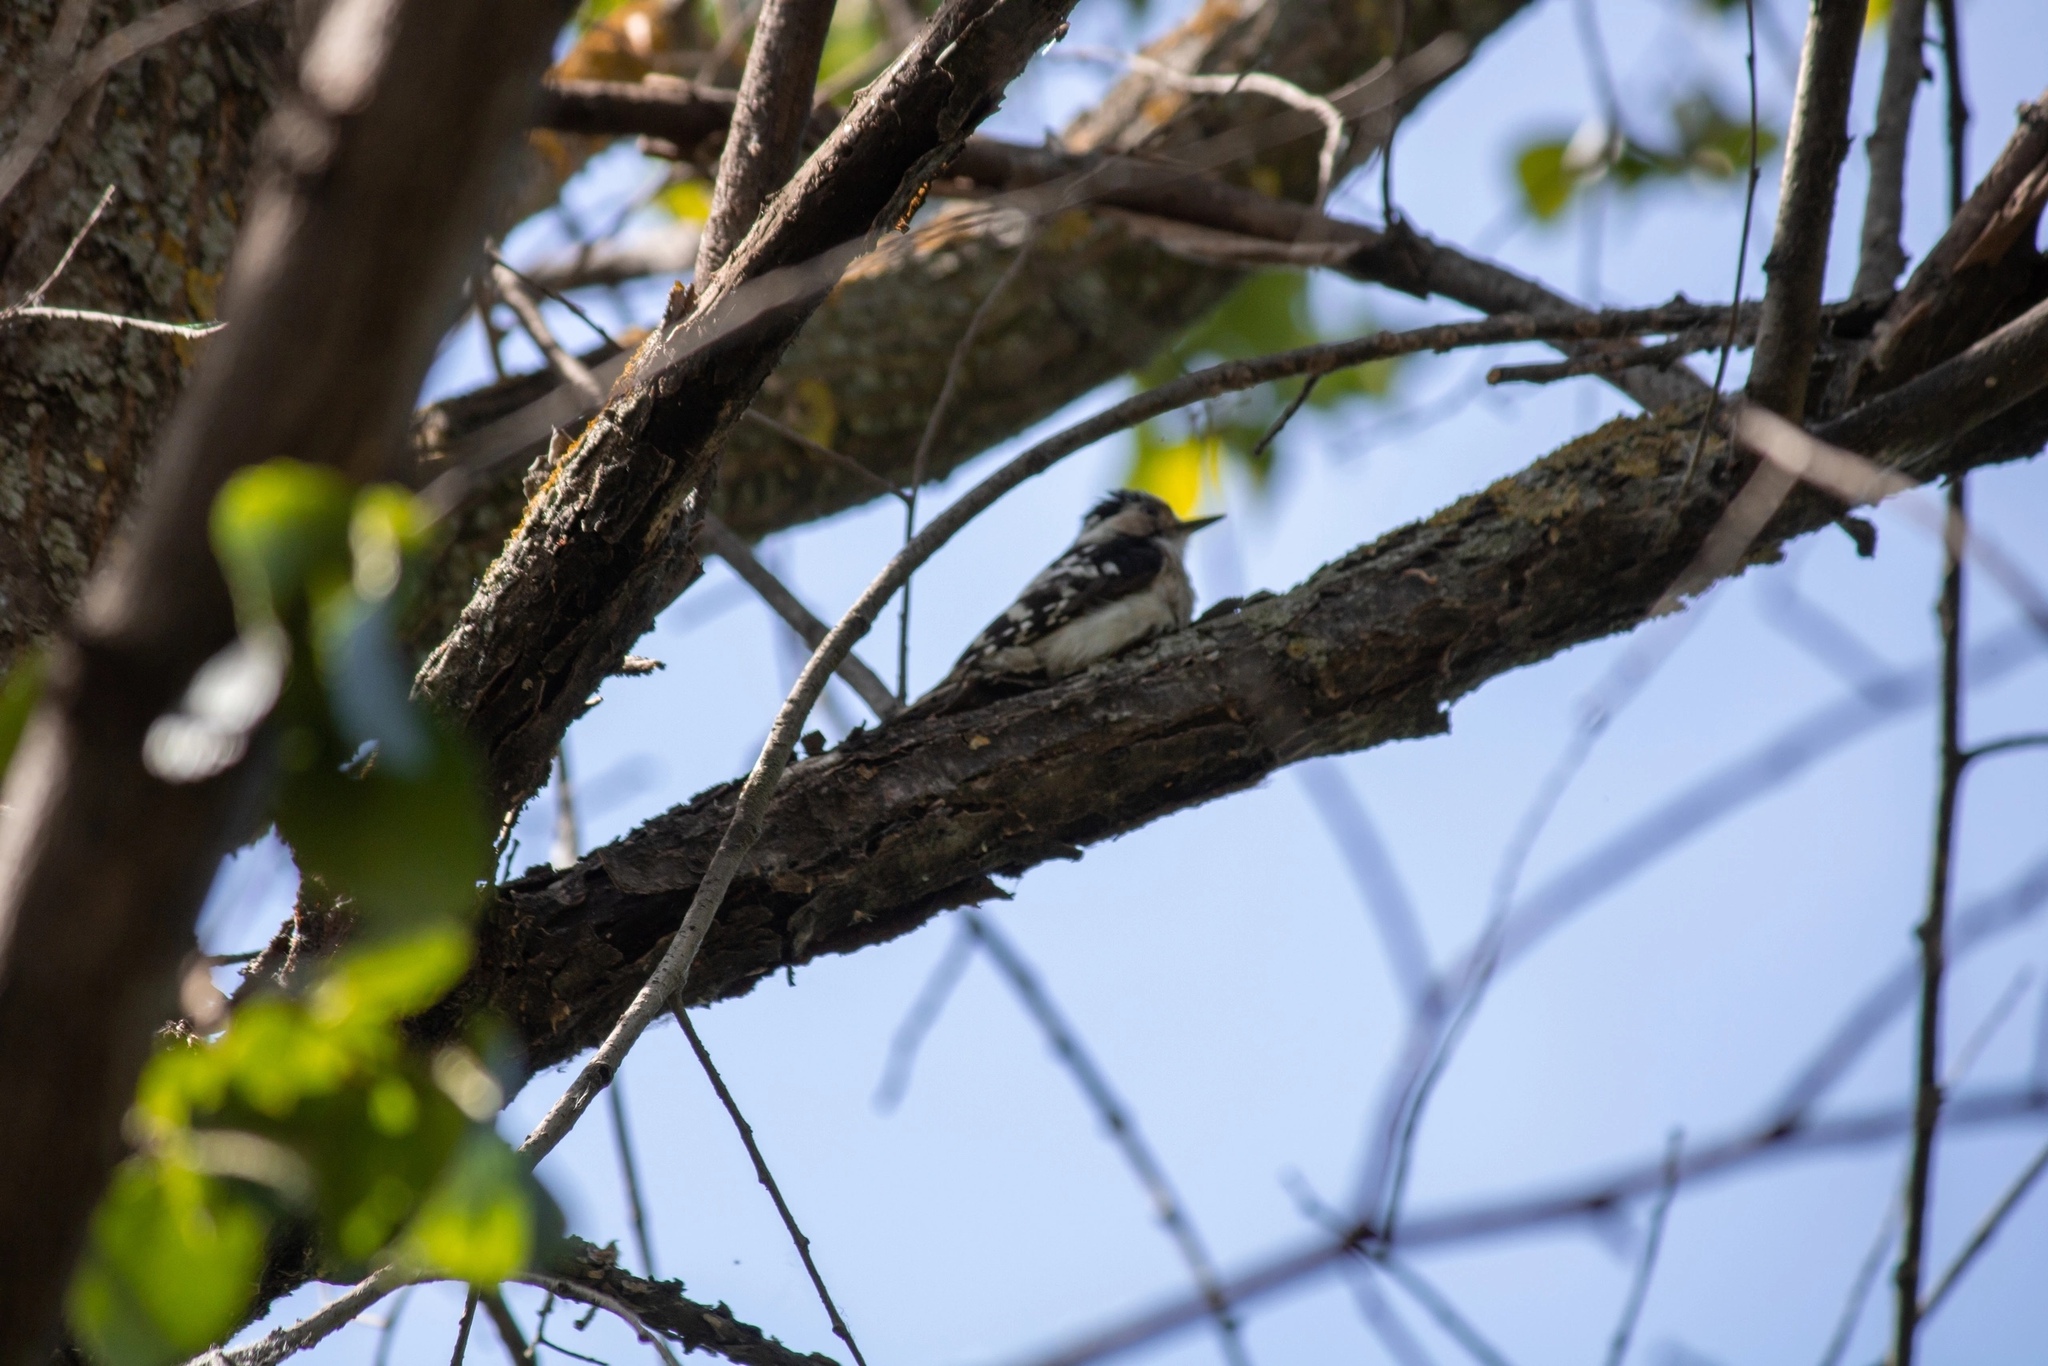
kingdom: Animalia
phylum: Chordata
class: Aves
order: Piciformes
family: Picidae
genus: Dryobates
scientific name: Dryobates minor
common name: Lesser spotted woodpecker
